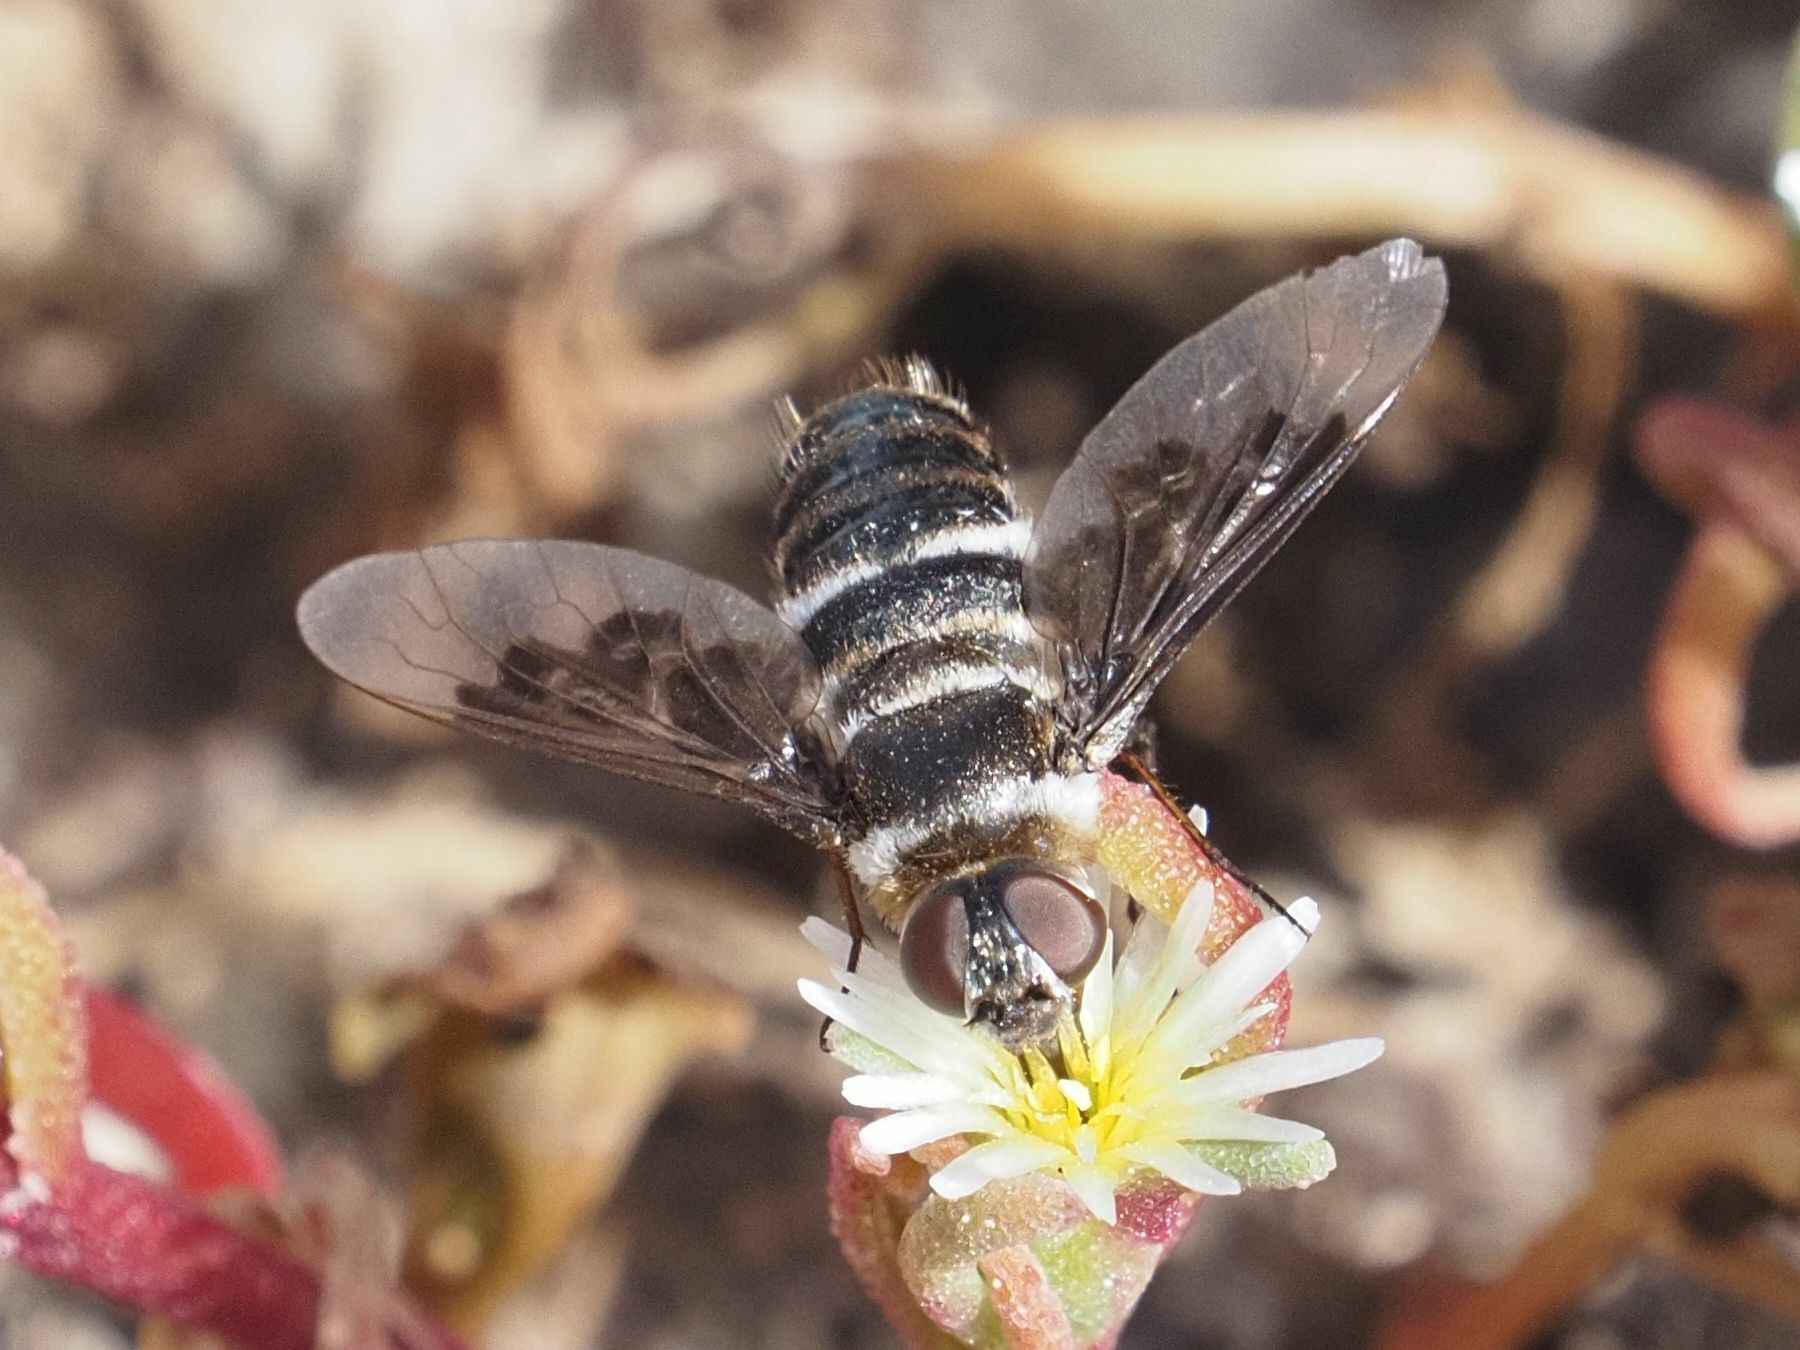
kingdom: Animalia
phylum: Arthropoda
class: Insecta
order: Diptera
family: Bombyliidae
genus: Thyridanthrax
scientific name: Thyridanthrax indigenus
